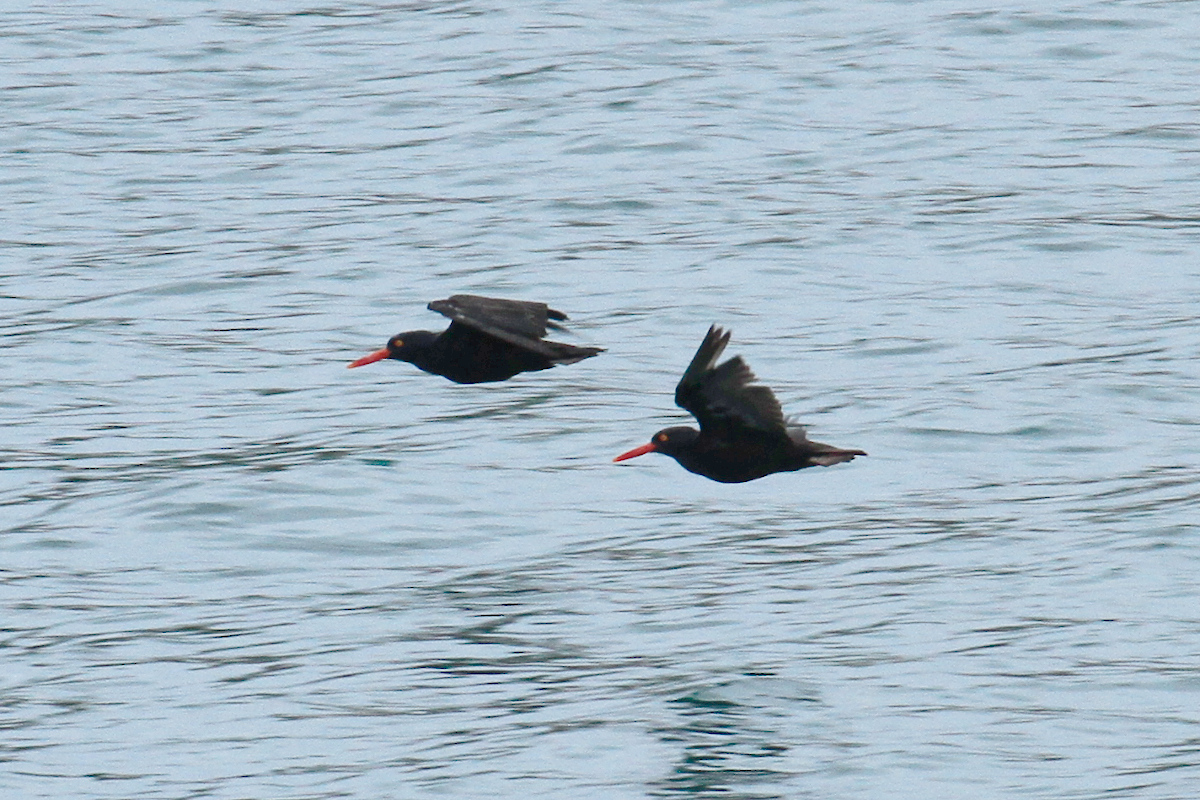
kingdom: Animalia
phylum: Chordata
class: Aves
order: Charadriiformes
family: Haematopodidae
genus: Haematopus
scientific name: Haematopus bachmani
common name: Black oystercatcher
